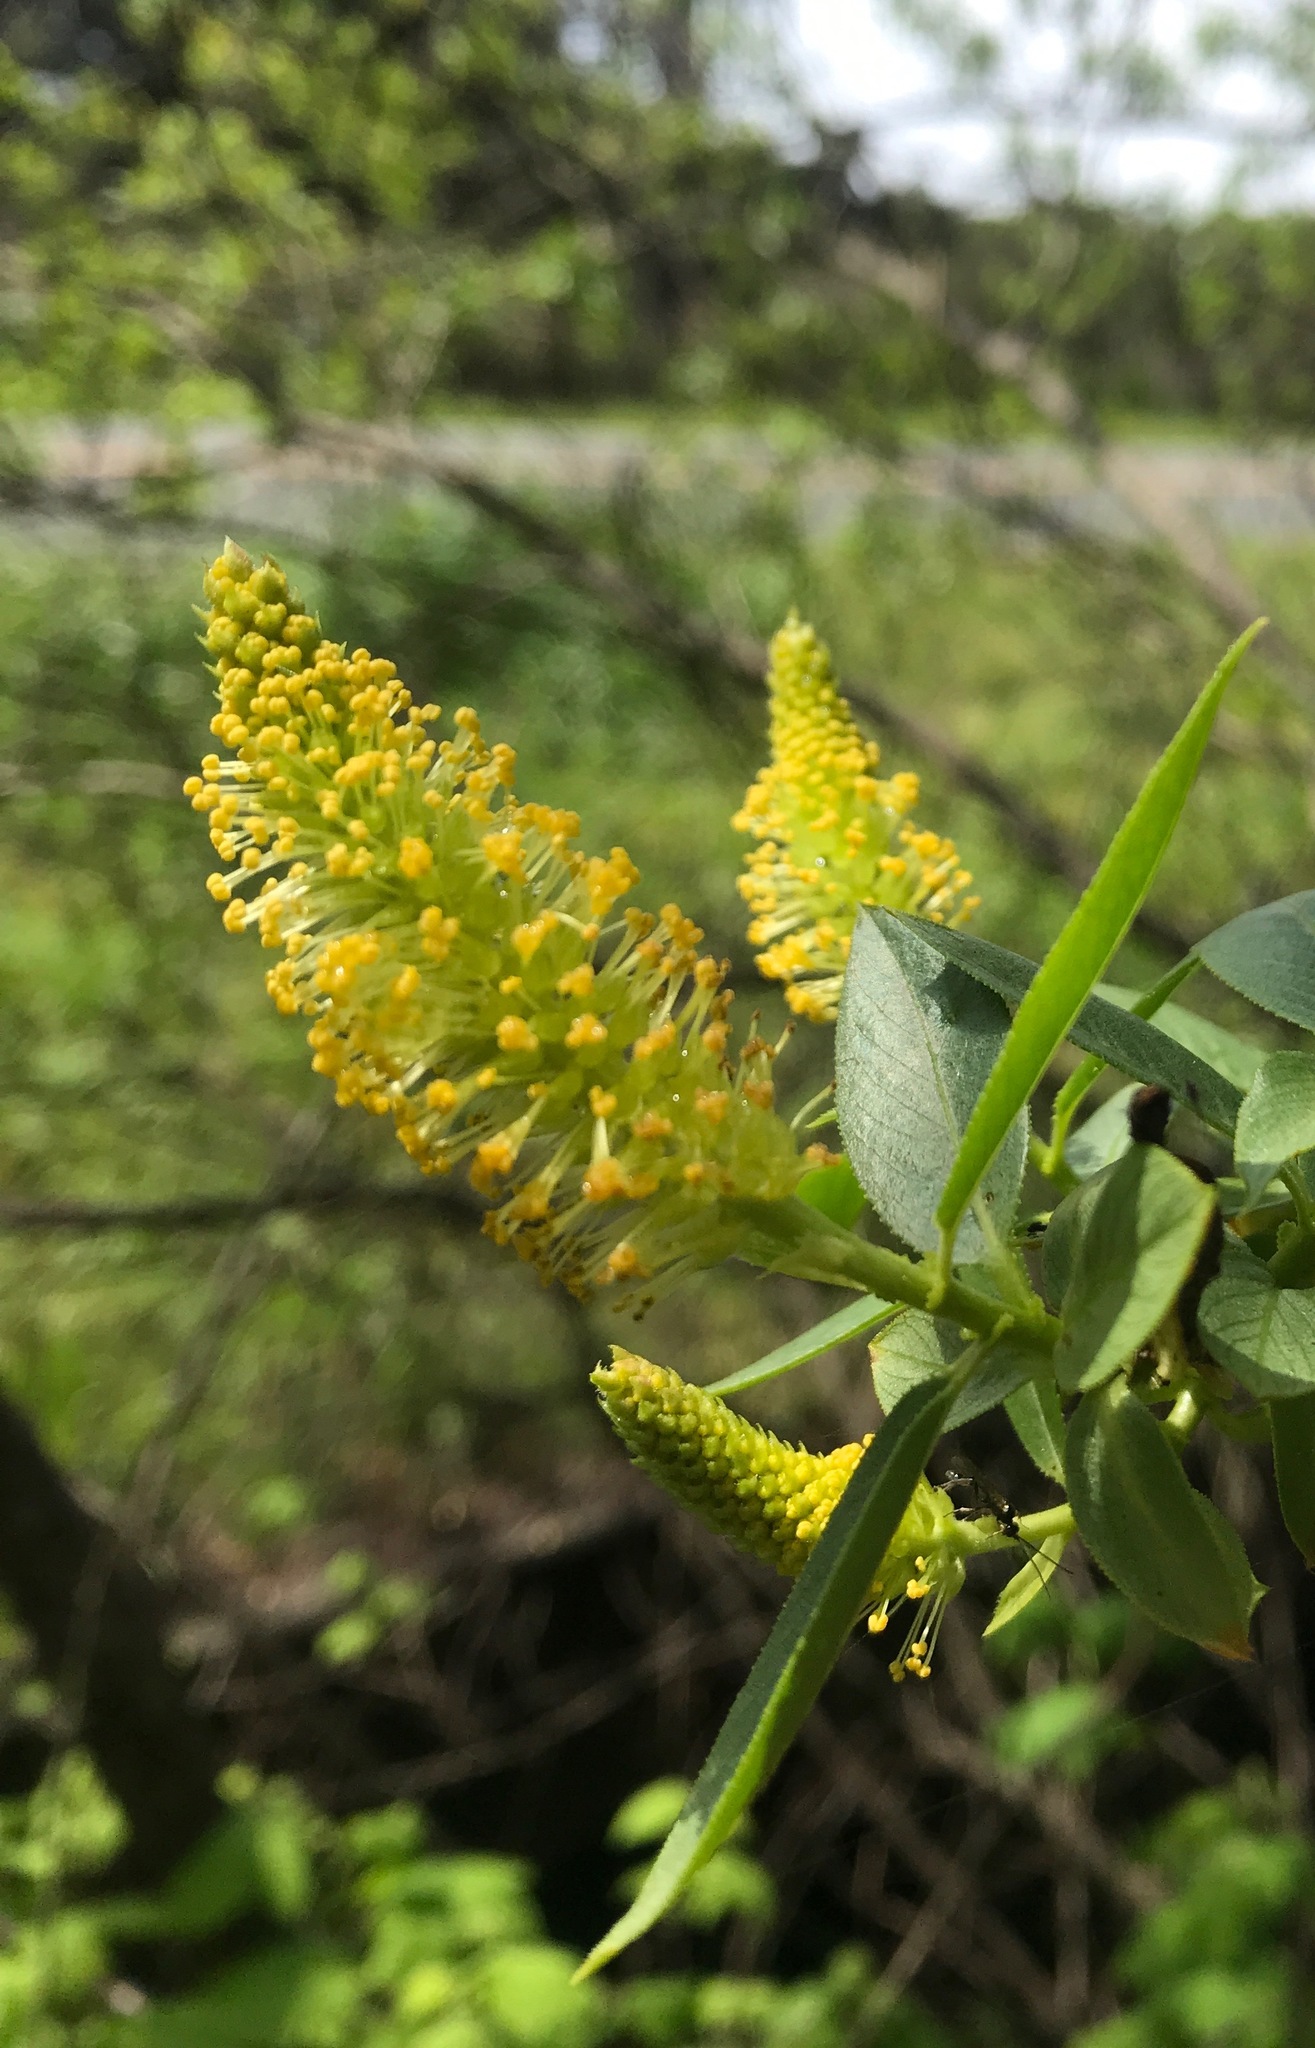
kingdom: Plantae
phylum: Tracheophyta
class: Magnoliopsida
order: Malpighiales
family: Salicaceae
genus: Salix
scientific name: Salix lucida
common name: Shining willow
